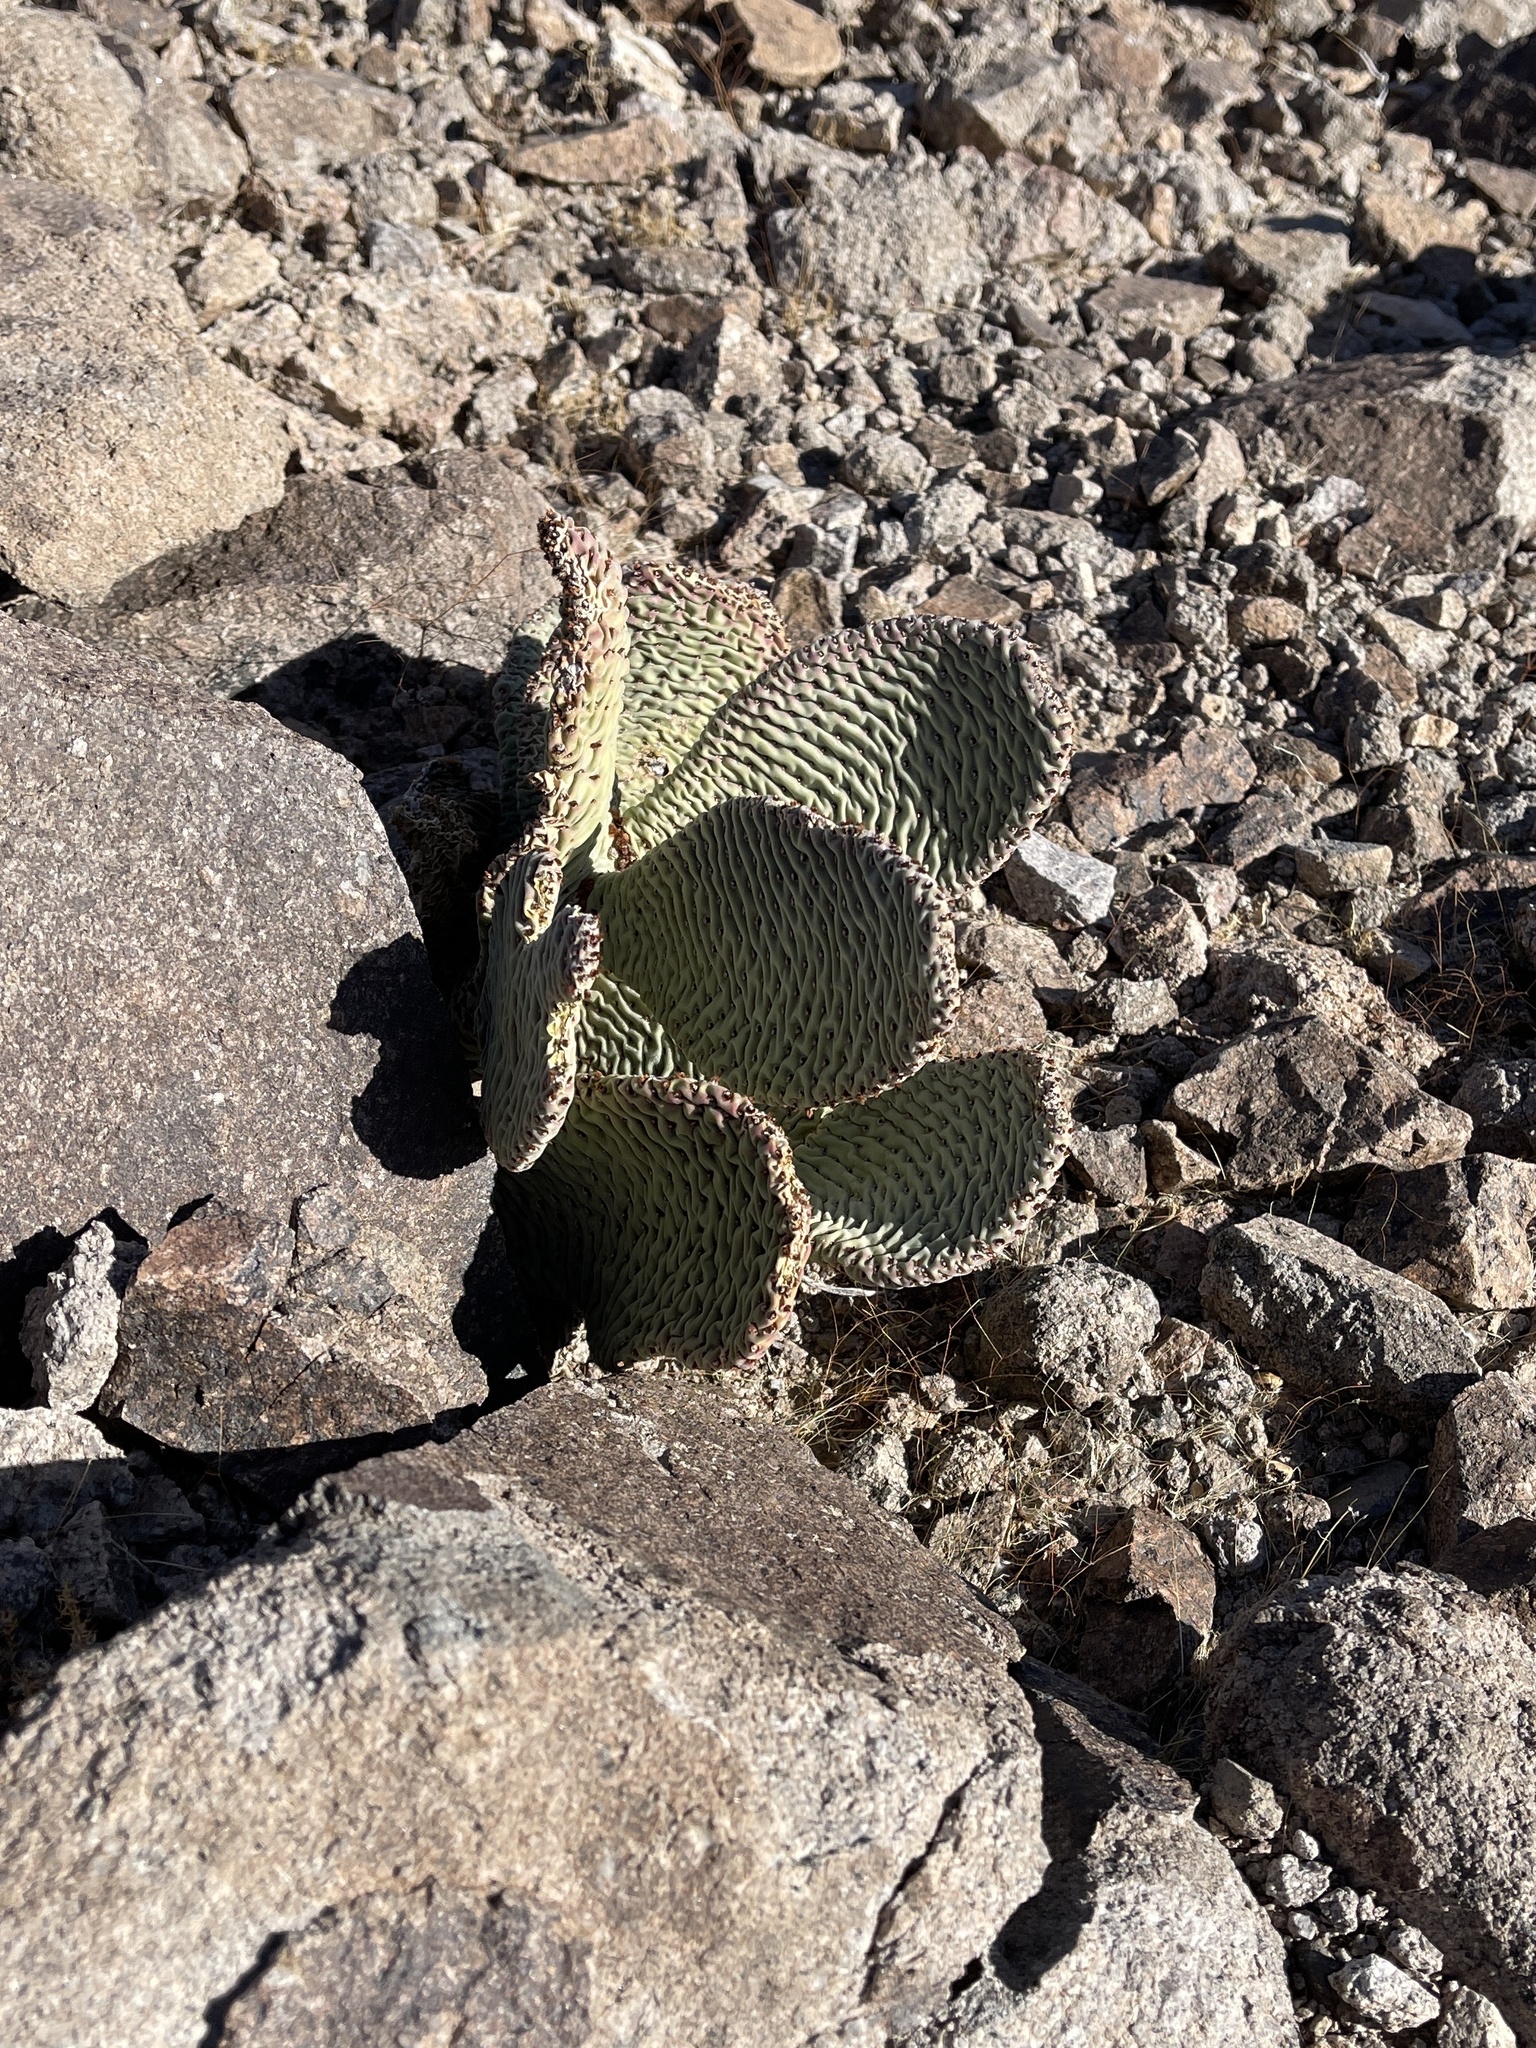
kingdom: Plantae
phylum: Tracheophyta
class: Magnoliopsida
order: Caryophyllales
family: Cactaceae
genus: Opuntia
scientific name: Opuntia basilaris
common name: Beavertail prickly-pear
